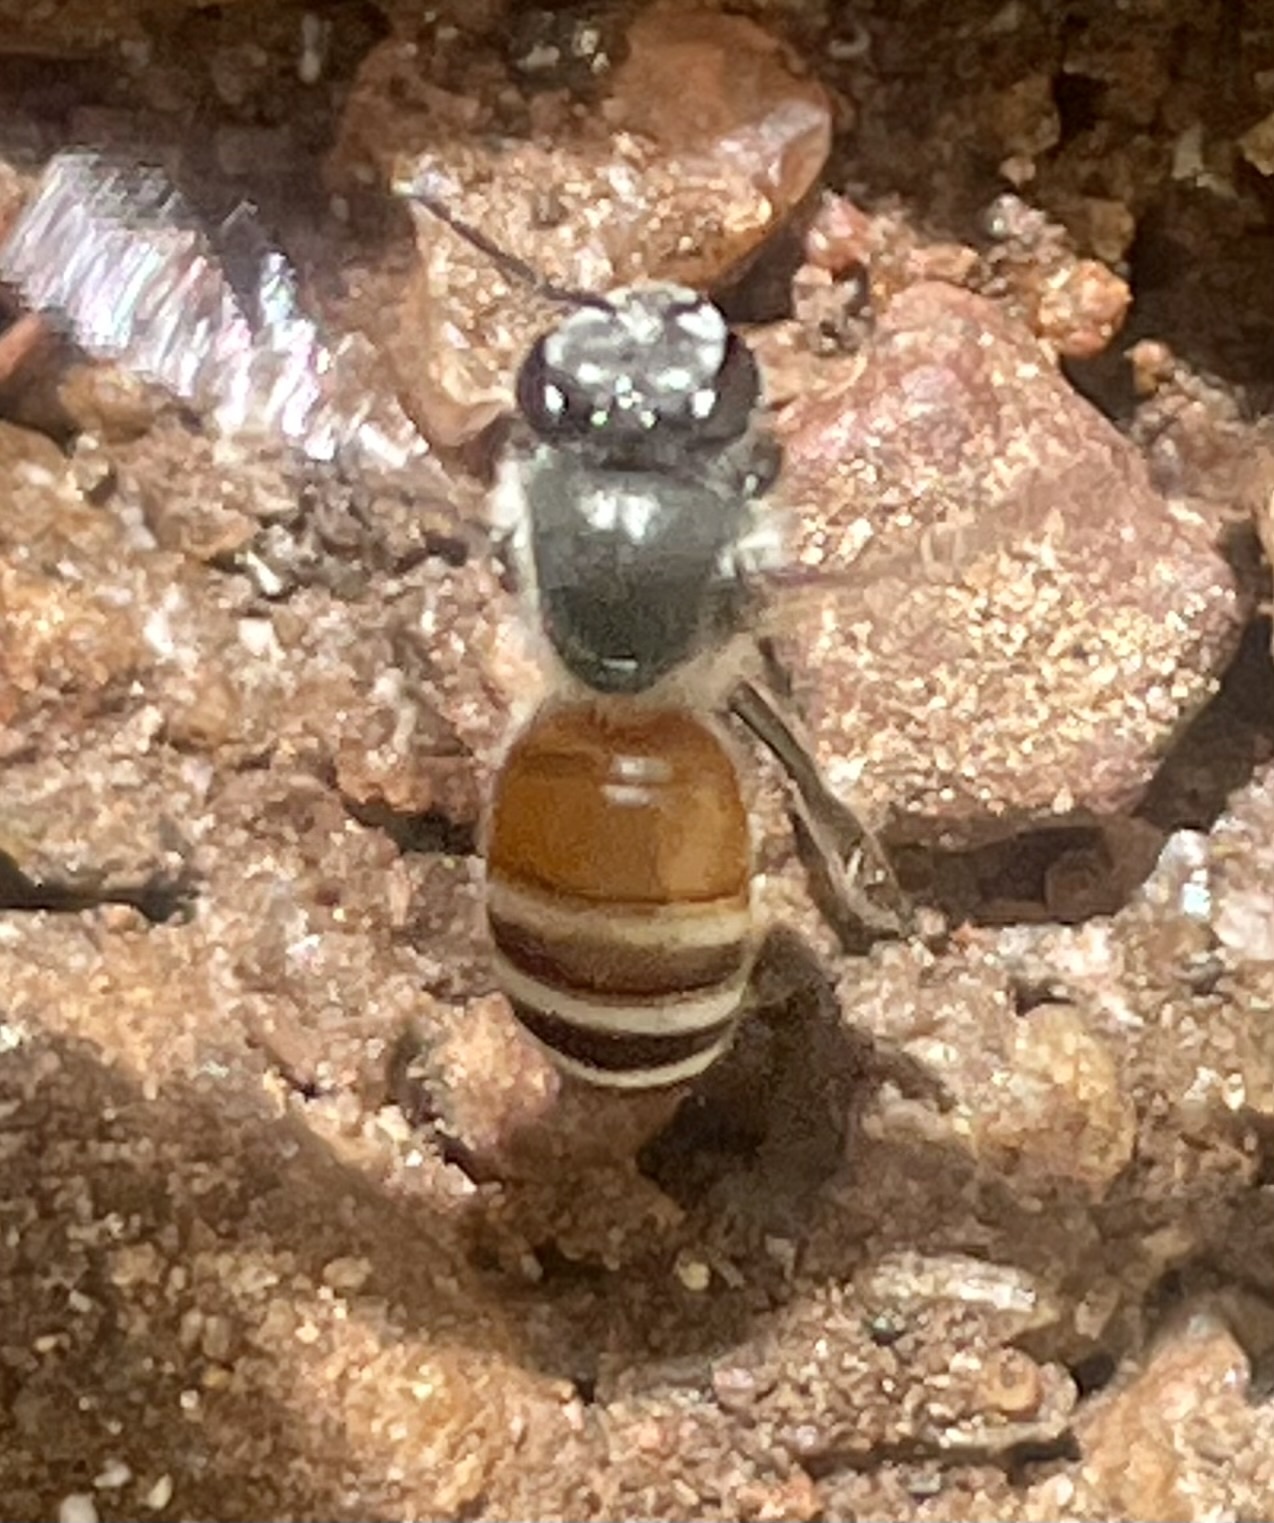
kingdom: Animalia
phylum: Arthropoda
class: Insecta
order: Hymenoptera
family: Apidae
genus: Apis
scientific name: Apis florea
